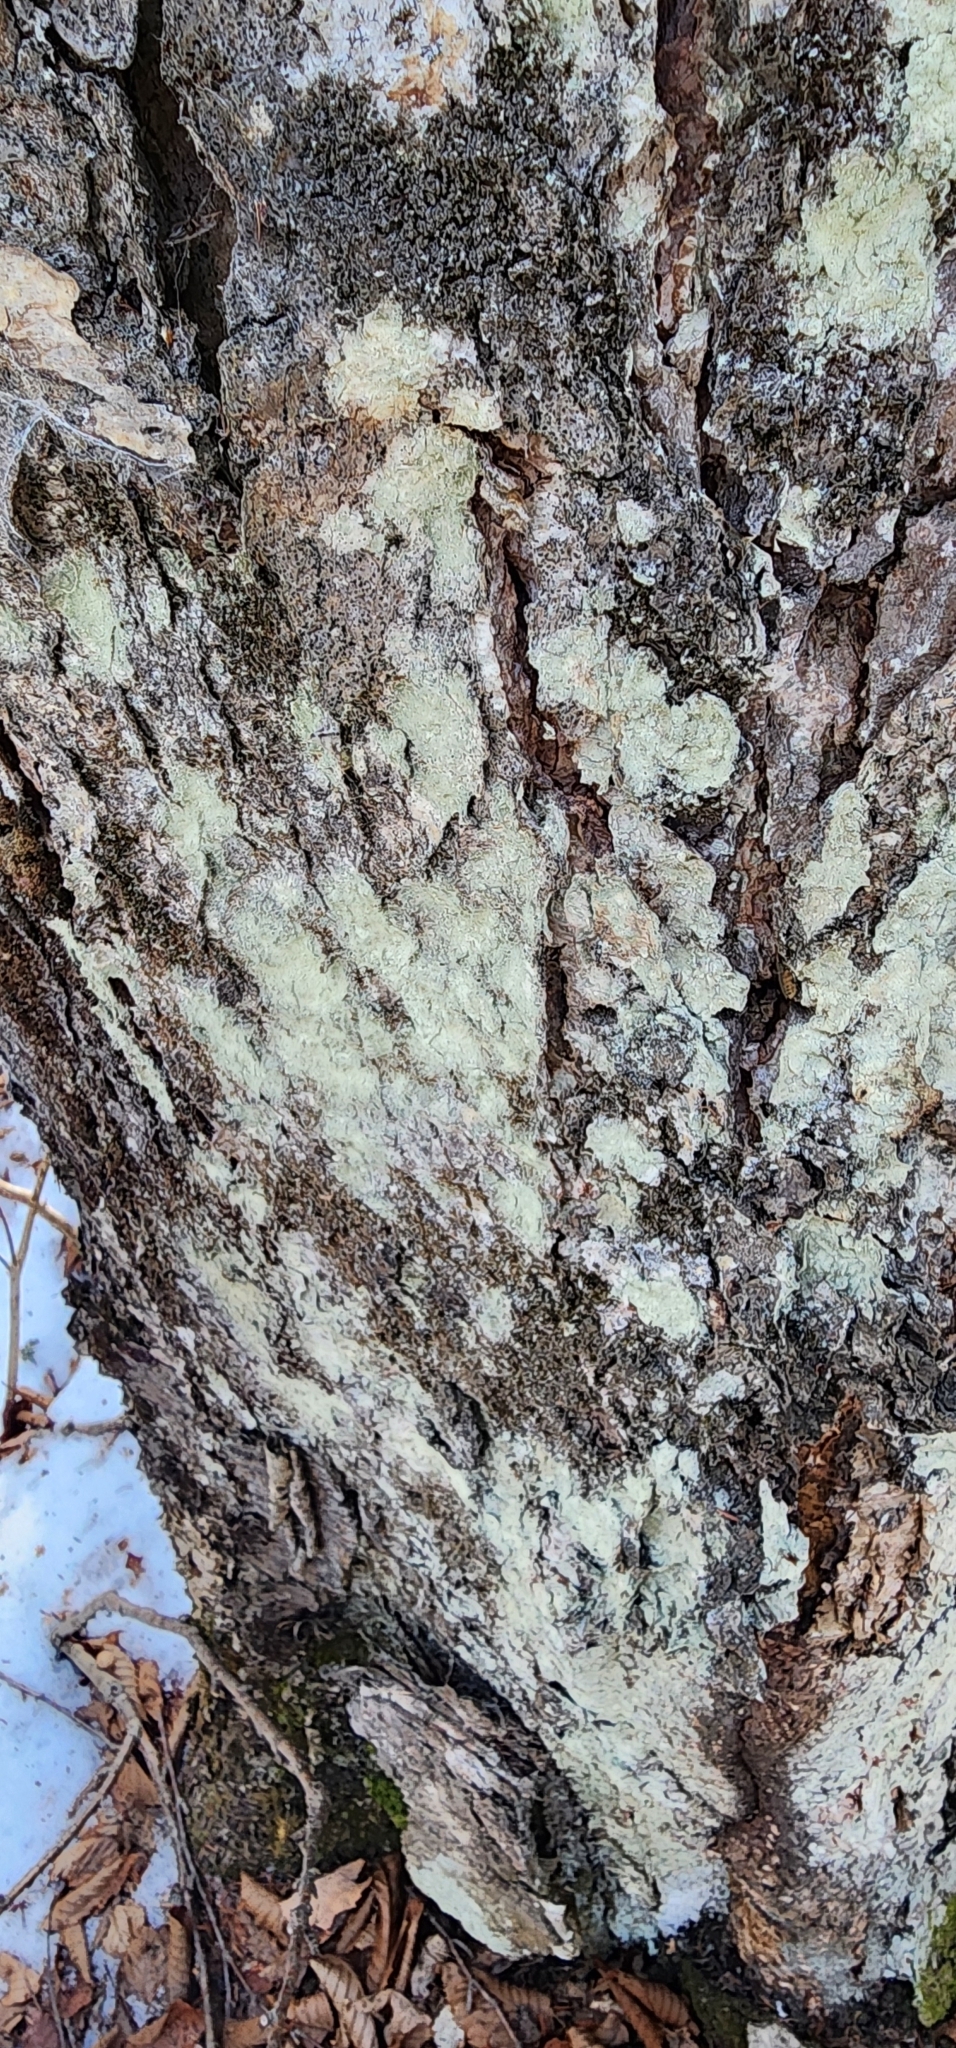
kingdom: Fungi
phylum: Ascomycota
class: Lecanoromycetes
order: Lecanorales
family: Stereocaulaceae
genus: Lepraria
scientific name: Lepraria lobificans
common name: Fluffy dust lichen
